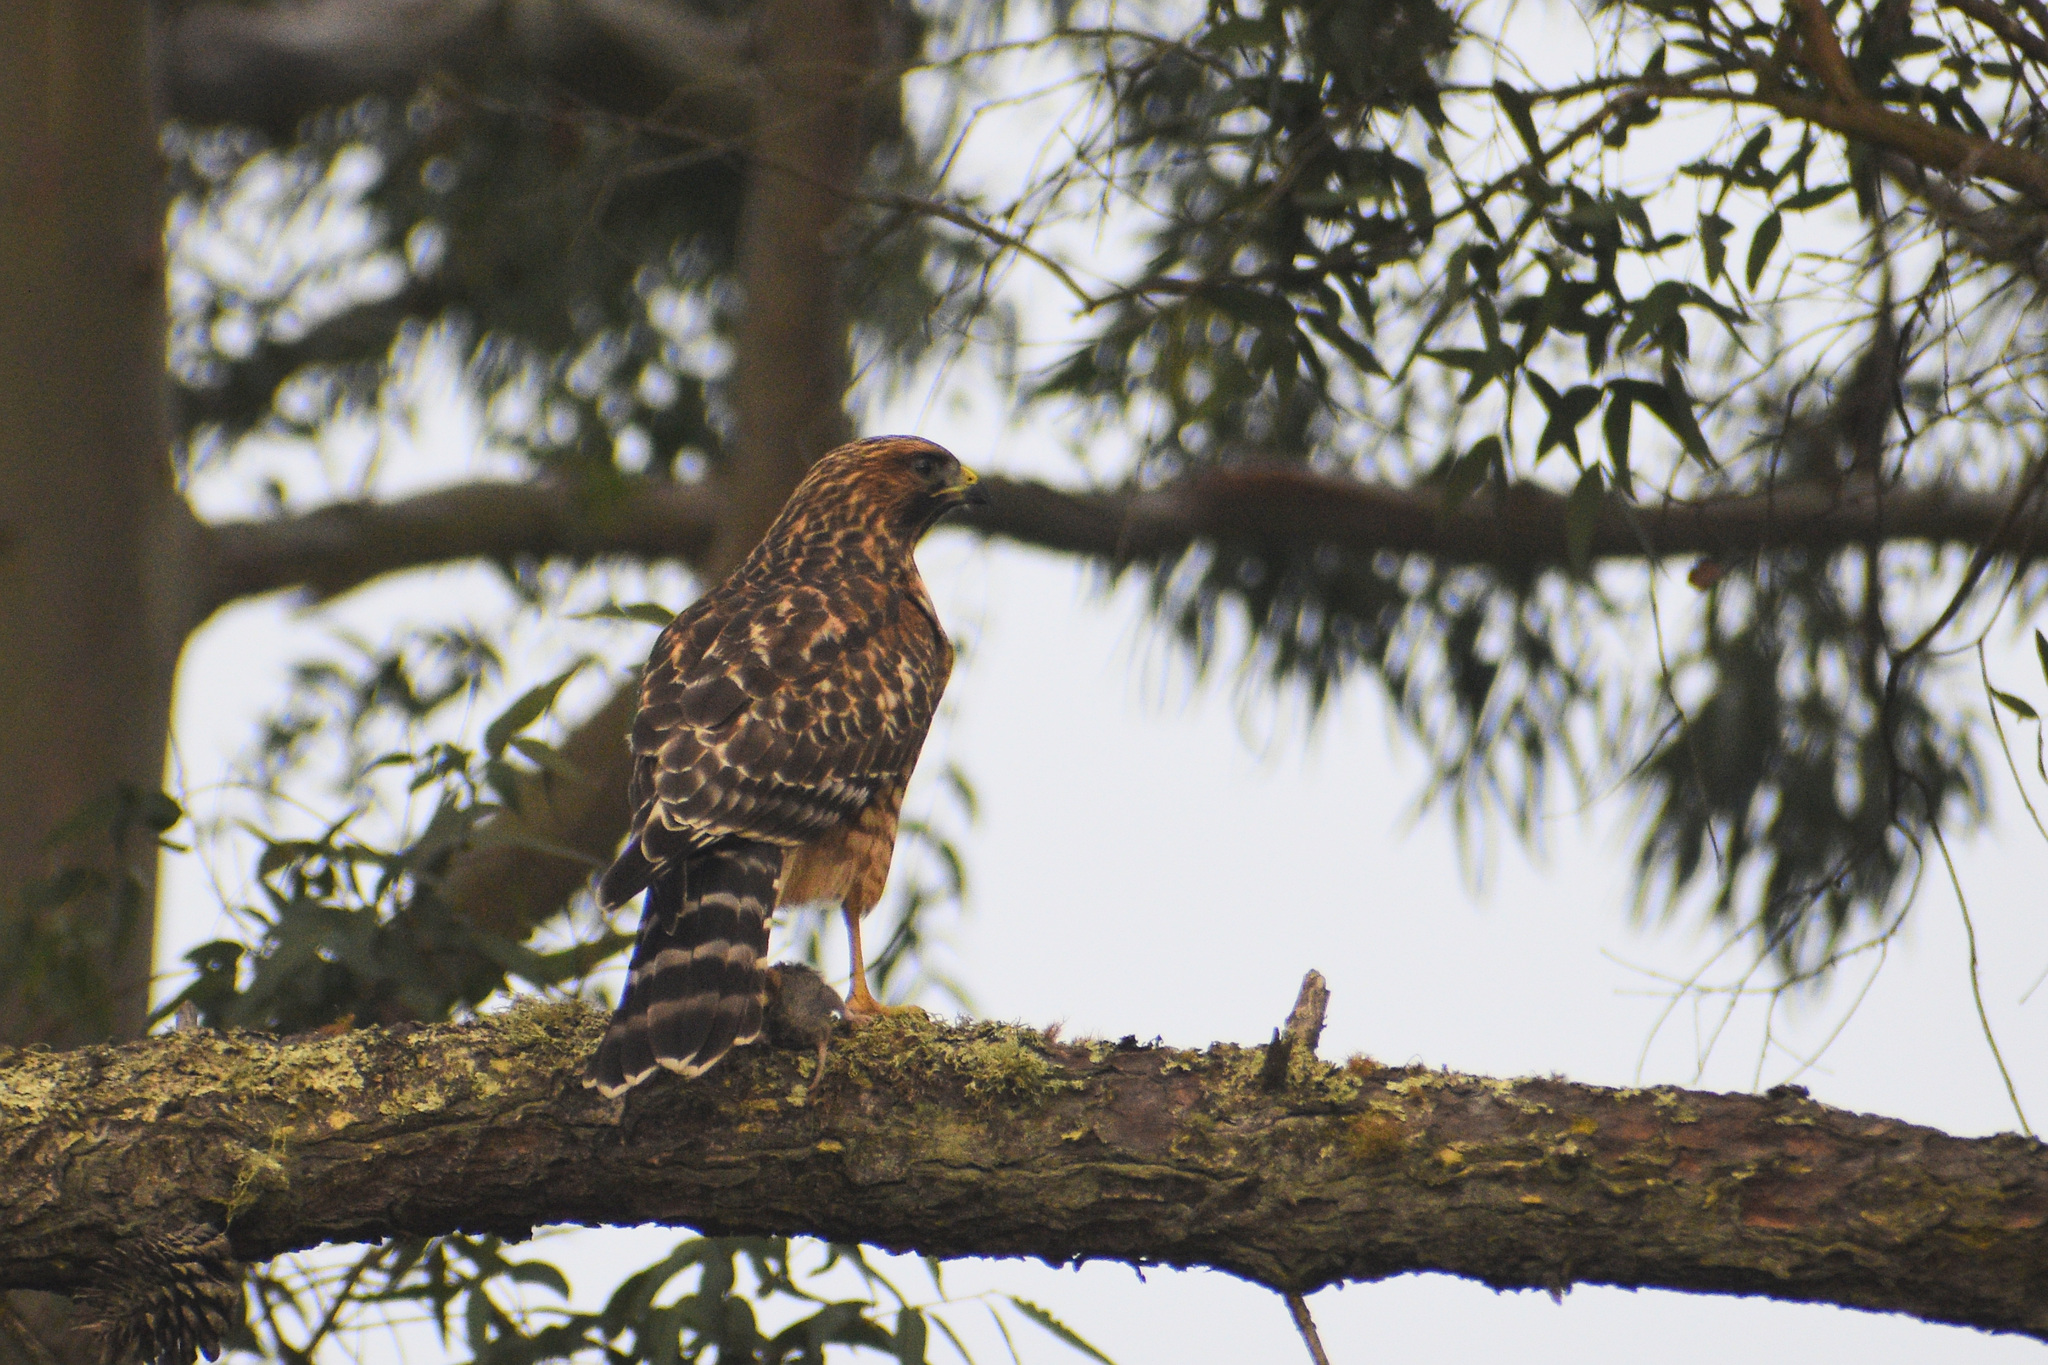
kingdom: Animalia
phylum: Chordata
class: Aves
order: Accipitriformes
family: Accipitridae
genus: Buteo
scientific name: Buteo lineatus
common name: Red-shouldered hawk
